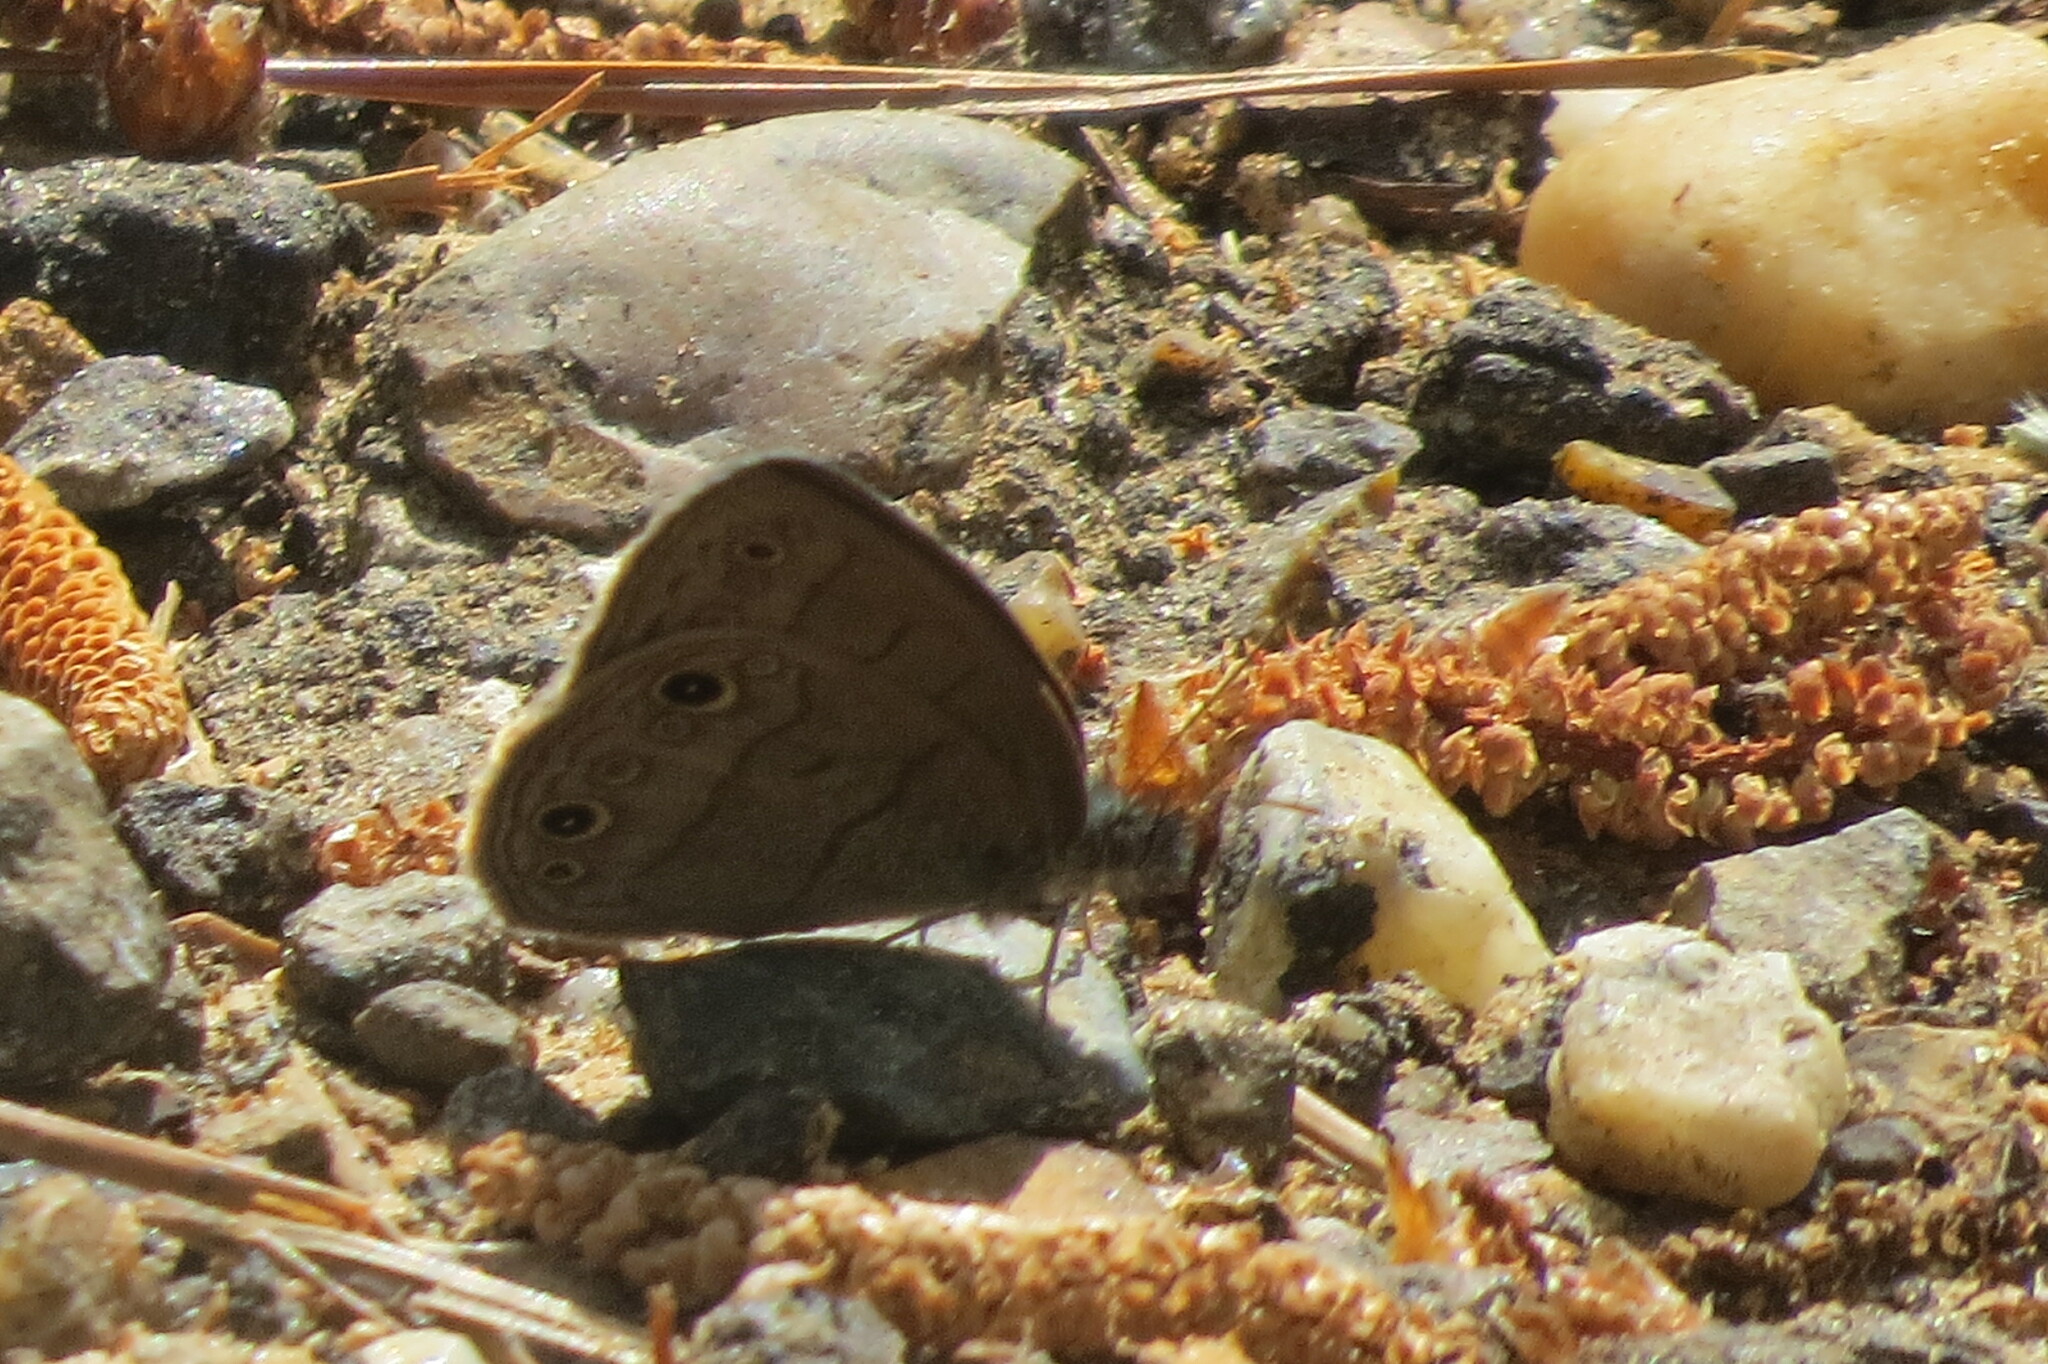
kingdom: Animalia
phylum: Arthropoda
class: Insecta
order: Lepidoptera
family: Nymphalidae
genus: Hermeuptychia
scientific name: Hermeuptychia hermes
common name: Hermes satyr
